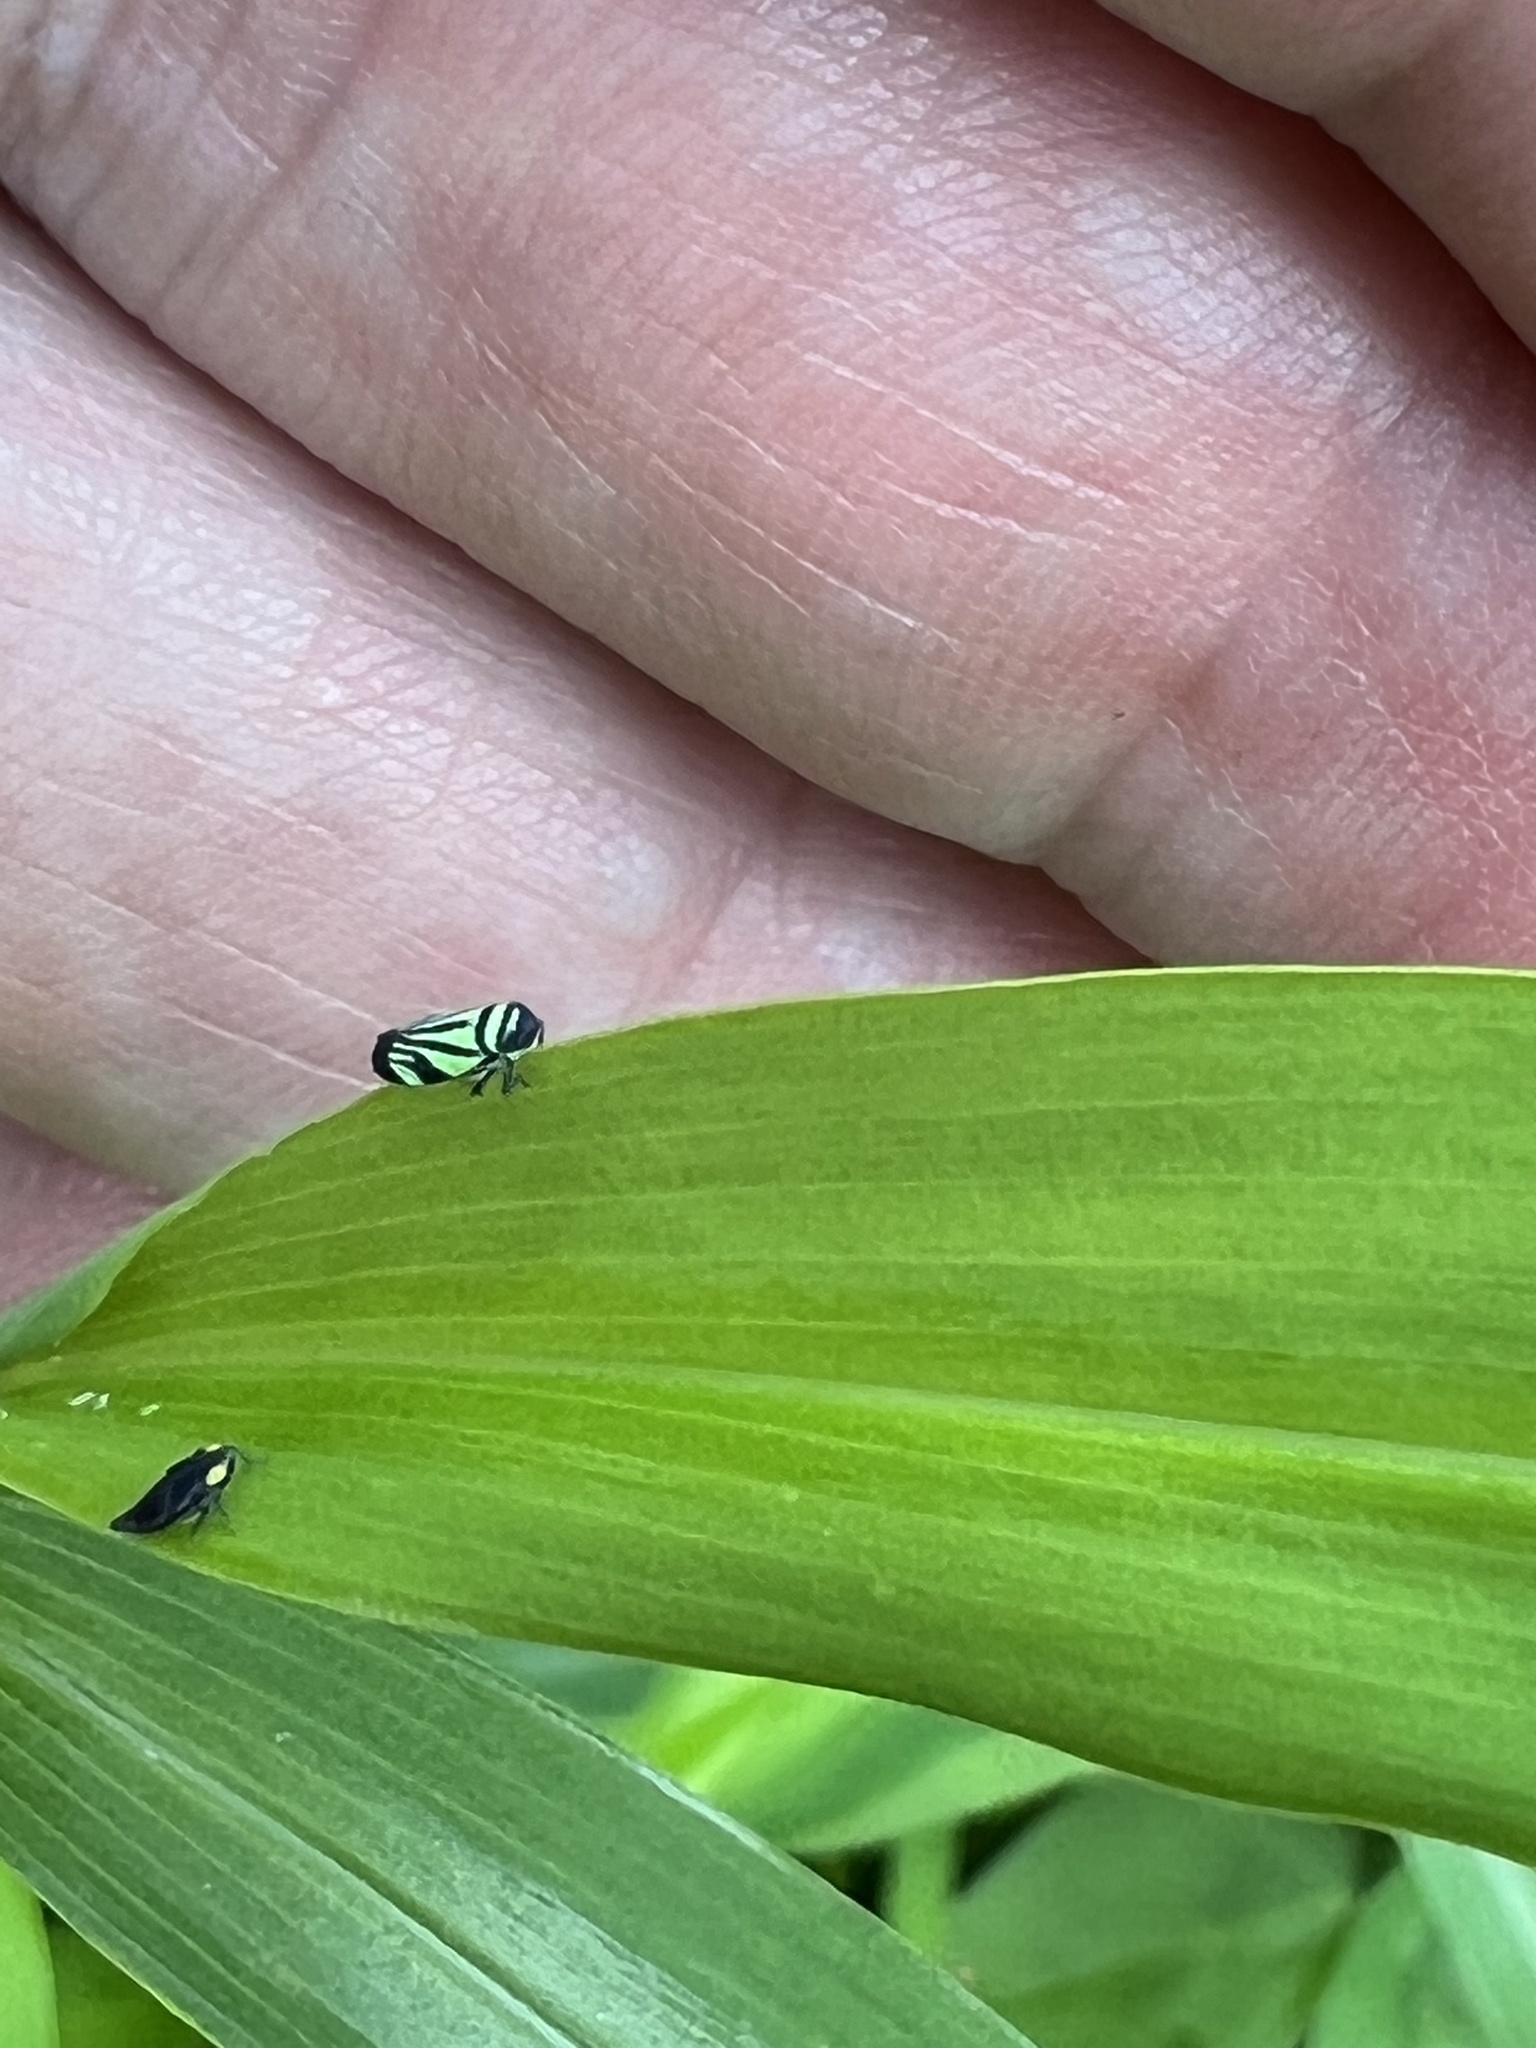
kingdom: Animalia
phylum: Arthropoda
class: Insecta
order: Hemiptera
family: Cicadellidae
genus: Stirellus
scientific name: Stirellus bicolor
